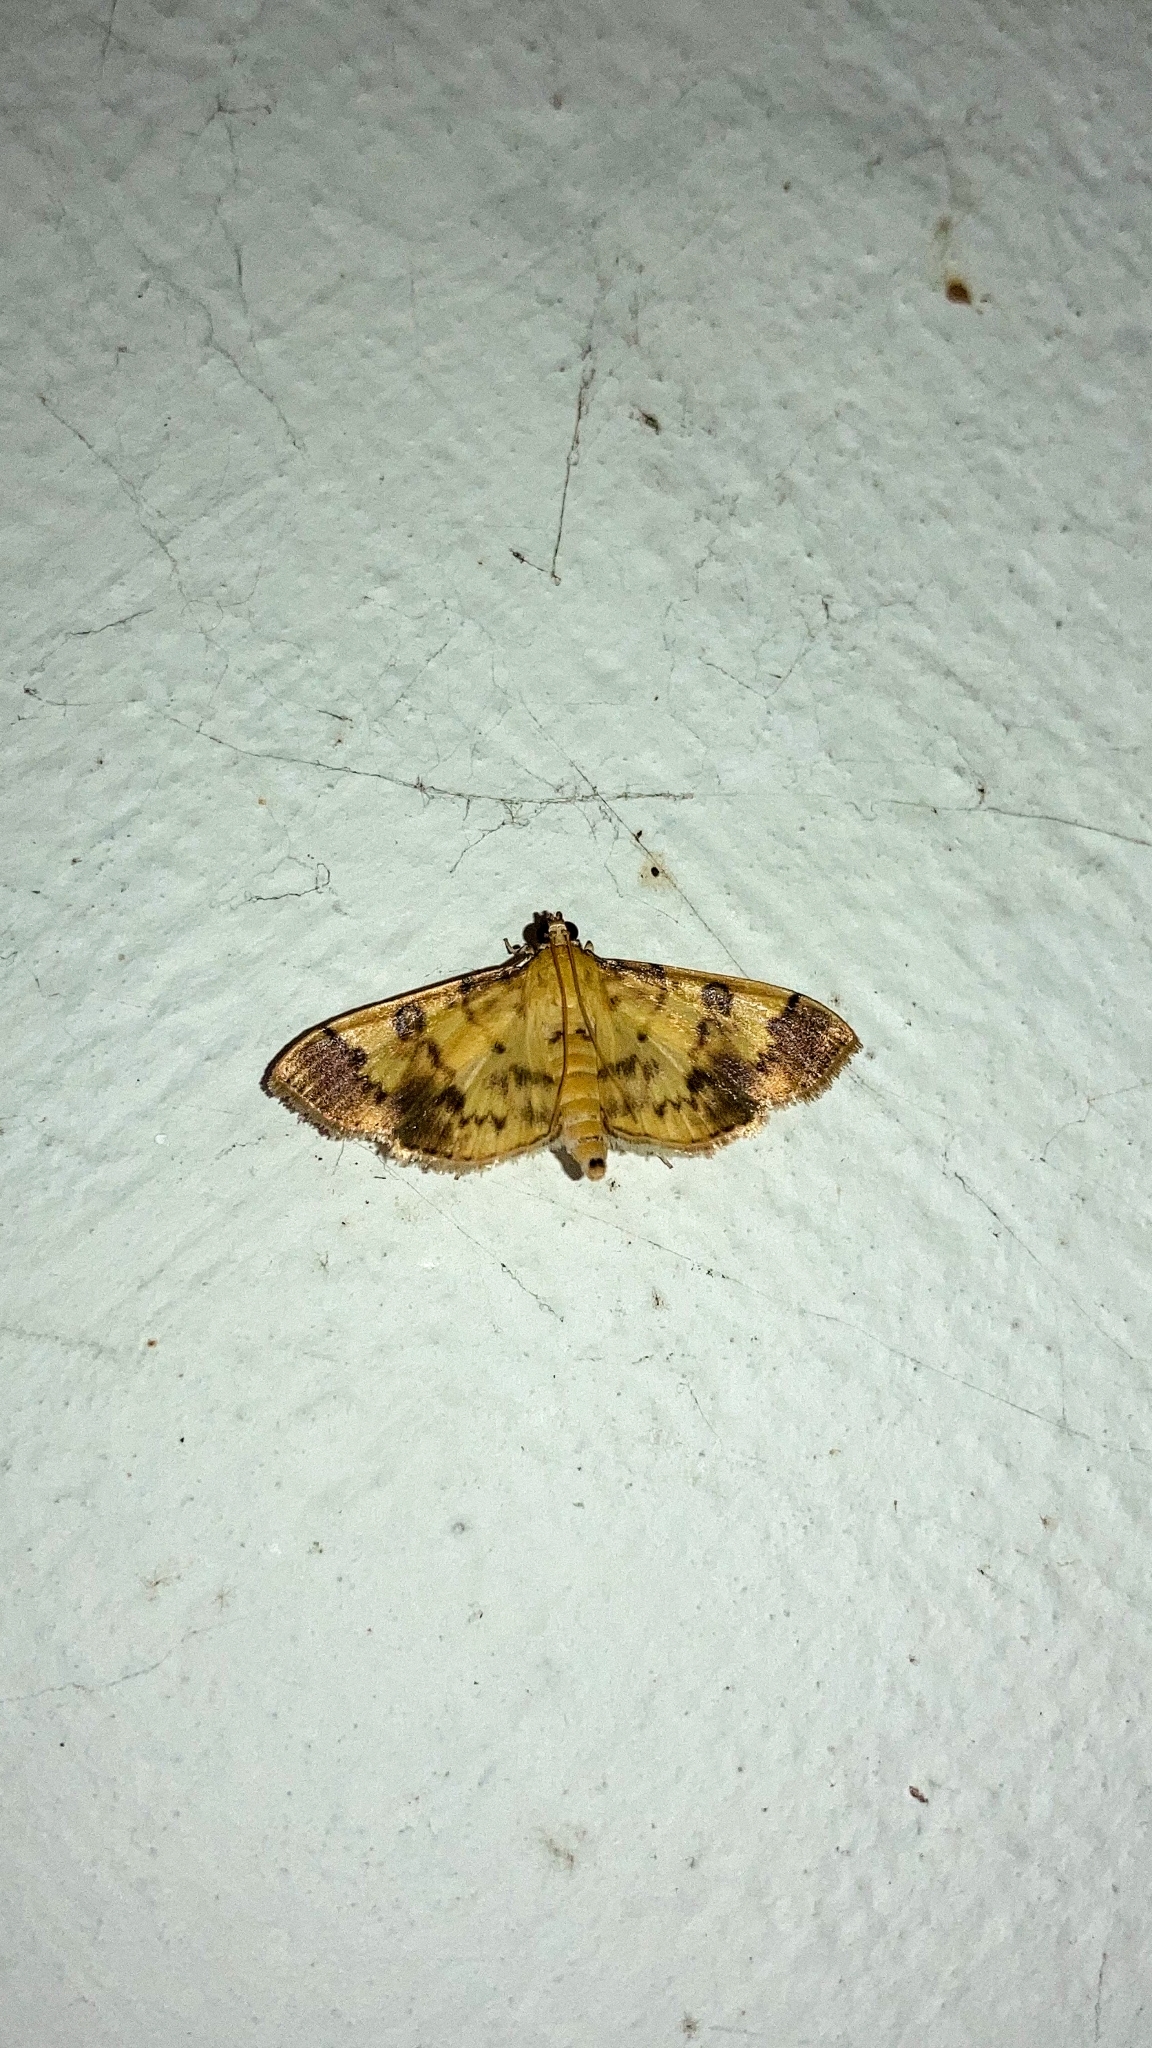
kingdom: Animalia
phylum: Arthropoda
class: Insecta
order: Lepidoptera
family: Crambidae
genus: Patania
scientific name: Patania iopasalis
